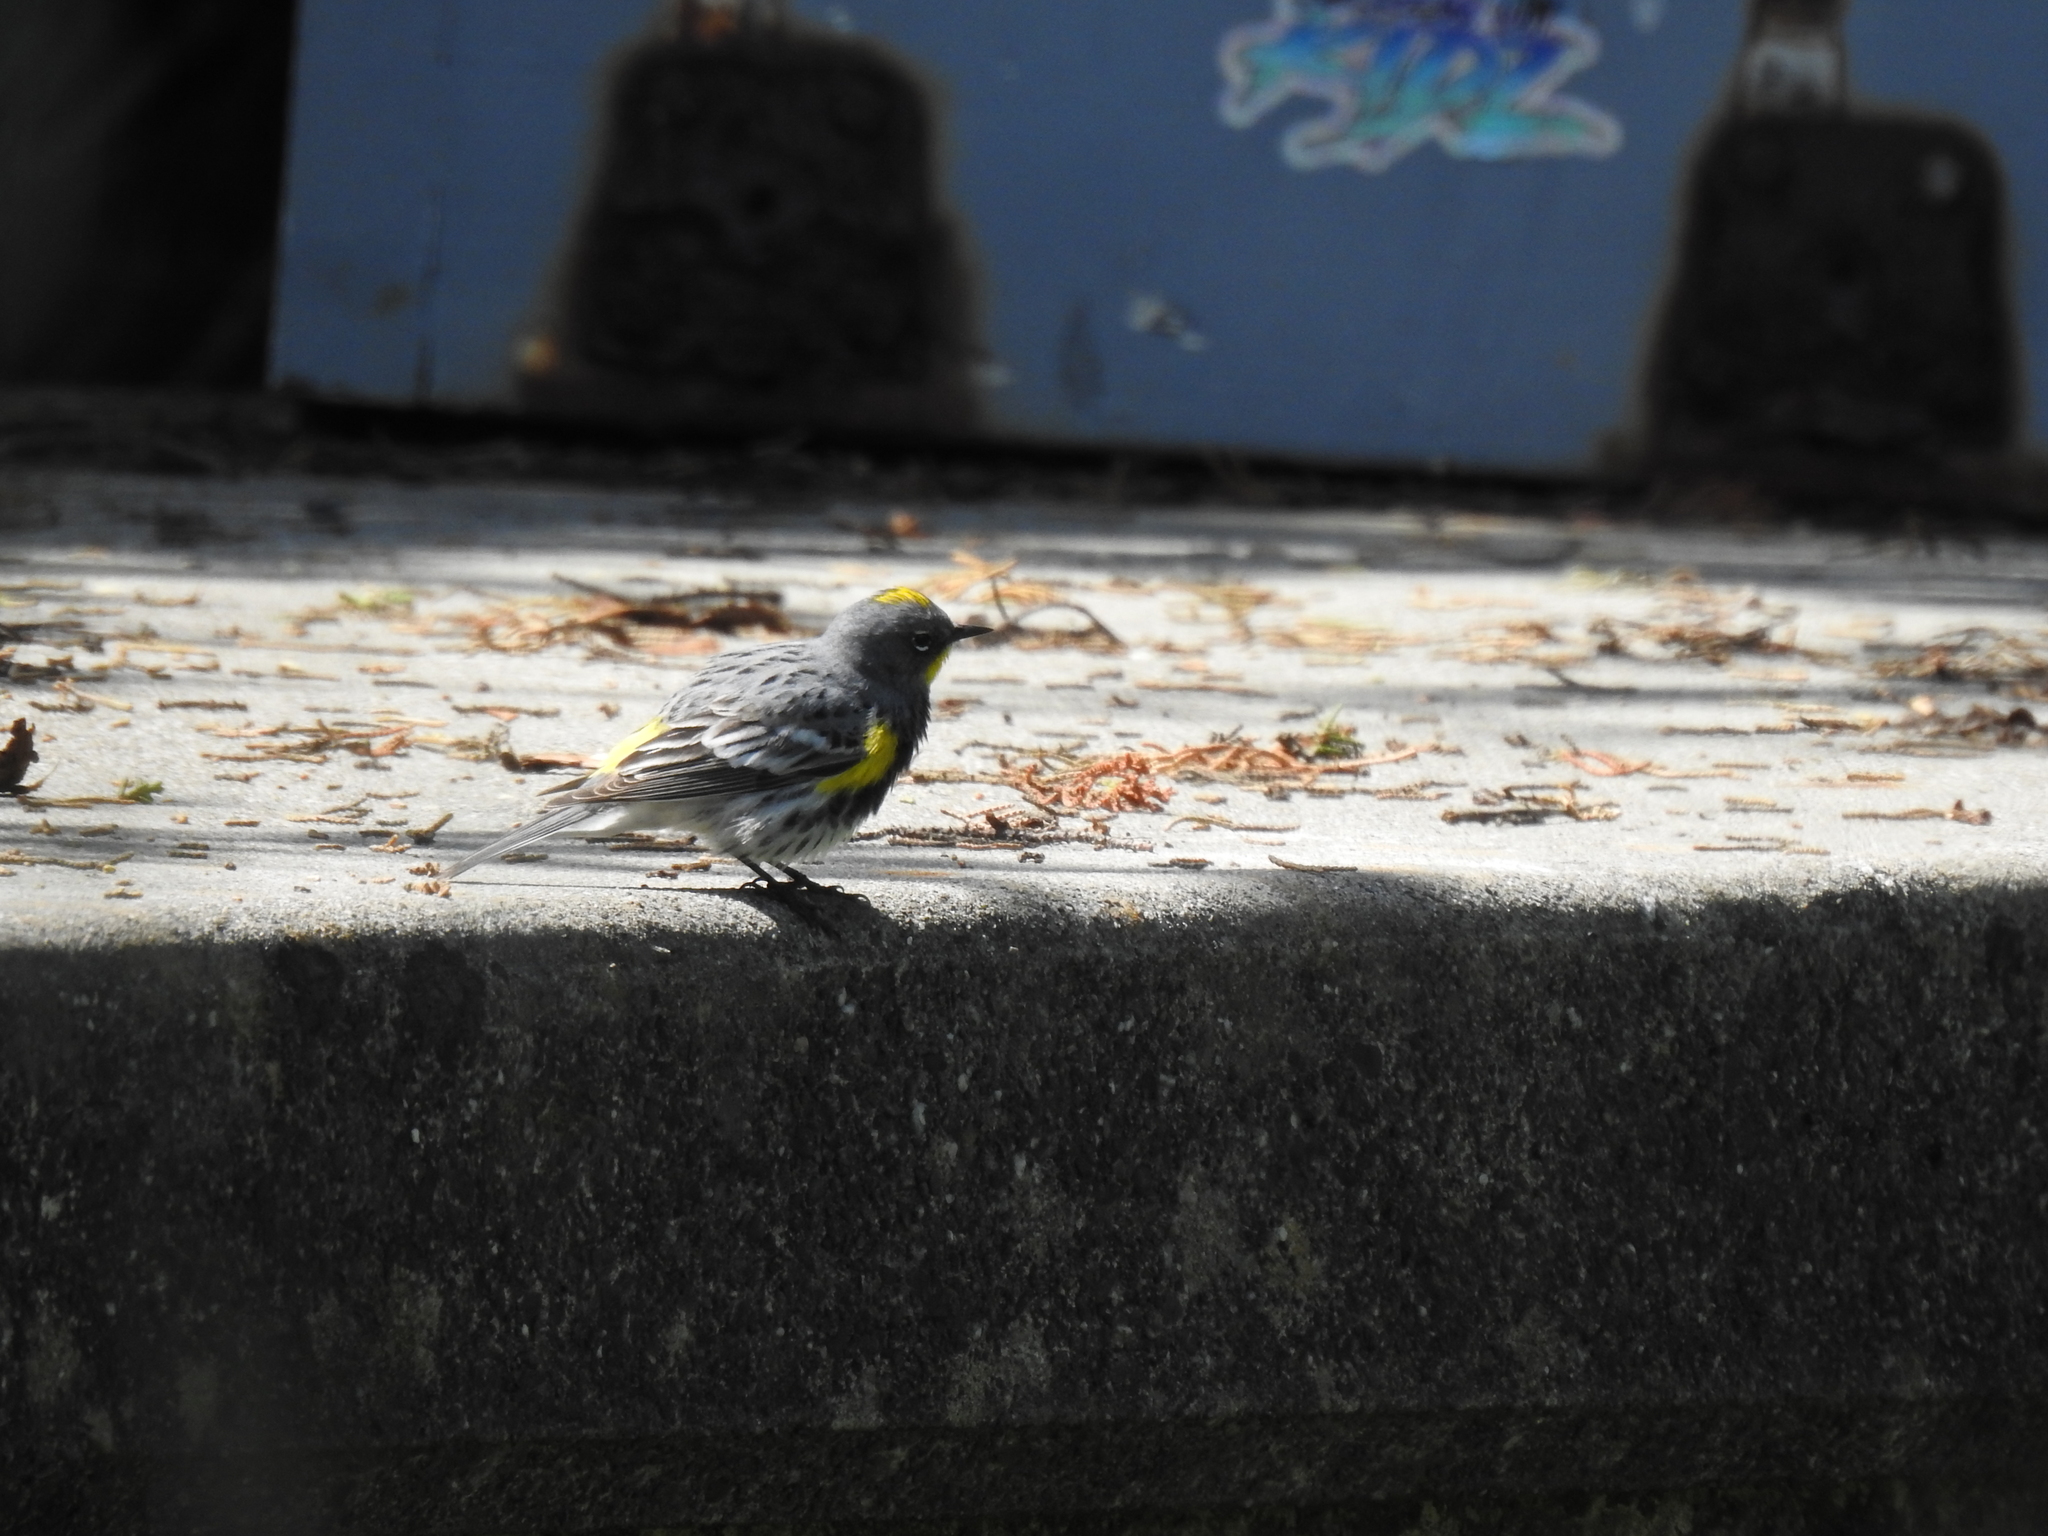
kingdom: Animalia
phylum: Chordata
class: Aves
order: Passeriformes
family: Parulidae
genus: Setophaga
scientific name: Setophaga coronata
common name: Myrtle warbler
